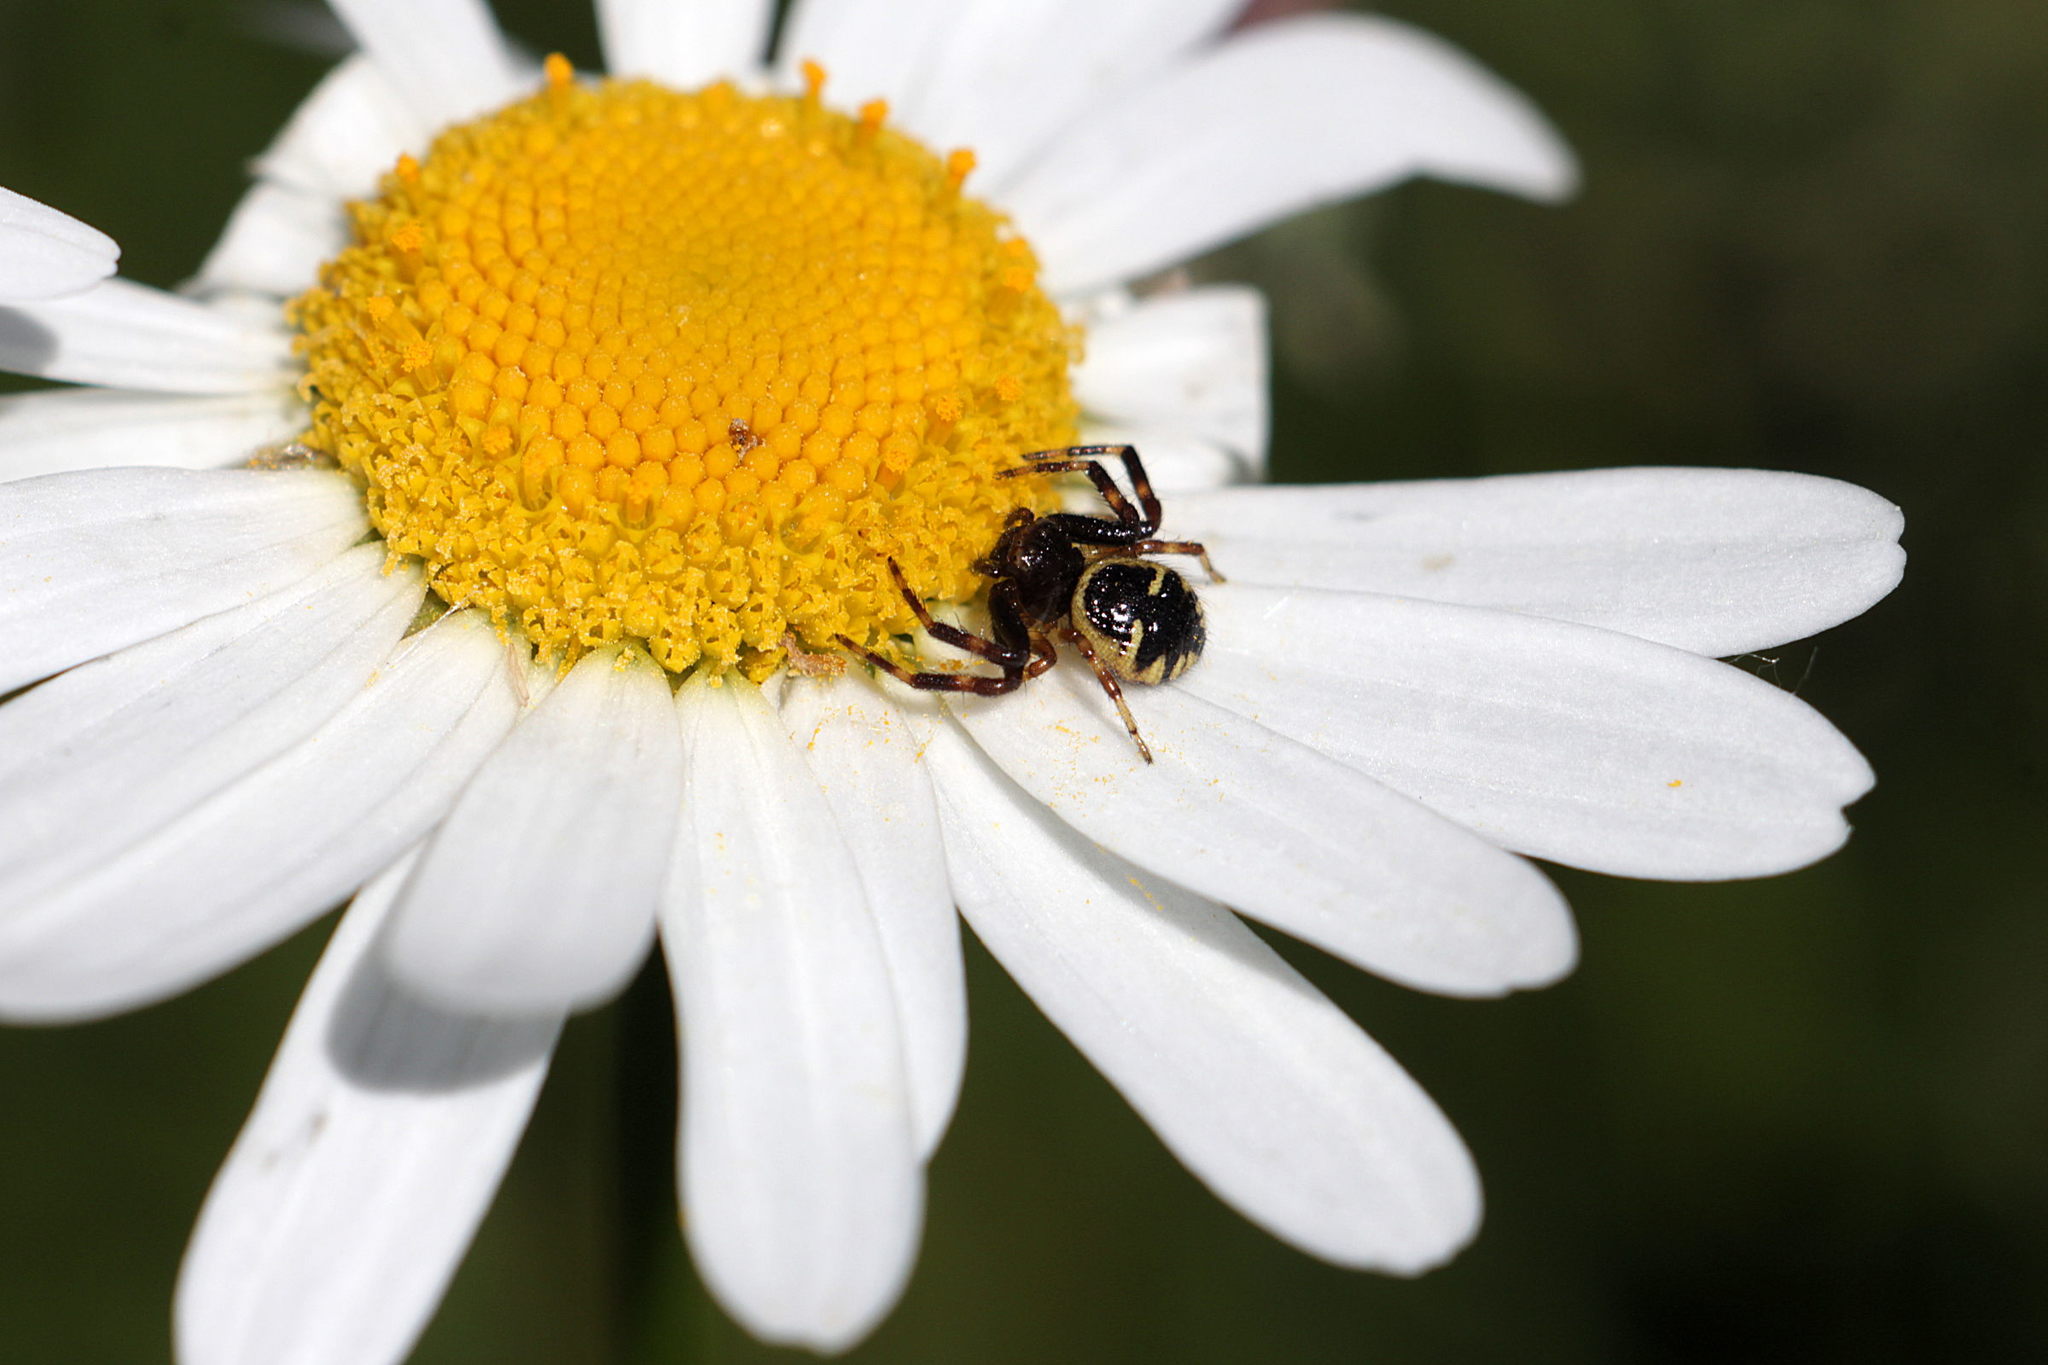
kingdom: Animalia
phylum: Arthropoda
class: Arachnida
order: Araneae
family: Thomisidae
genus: Synema
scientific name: Synema globosum
